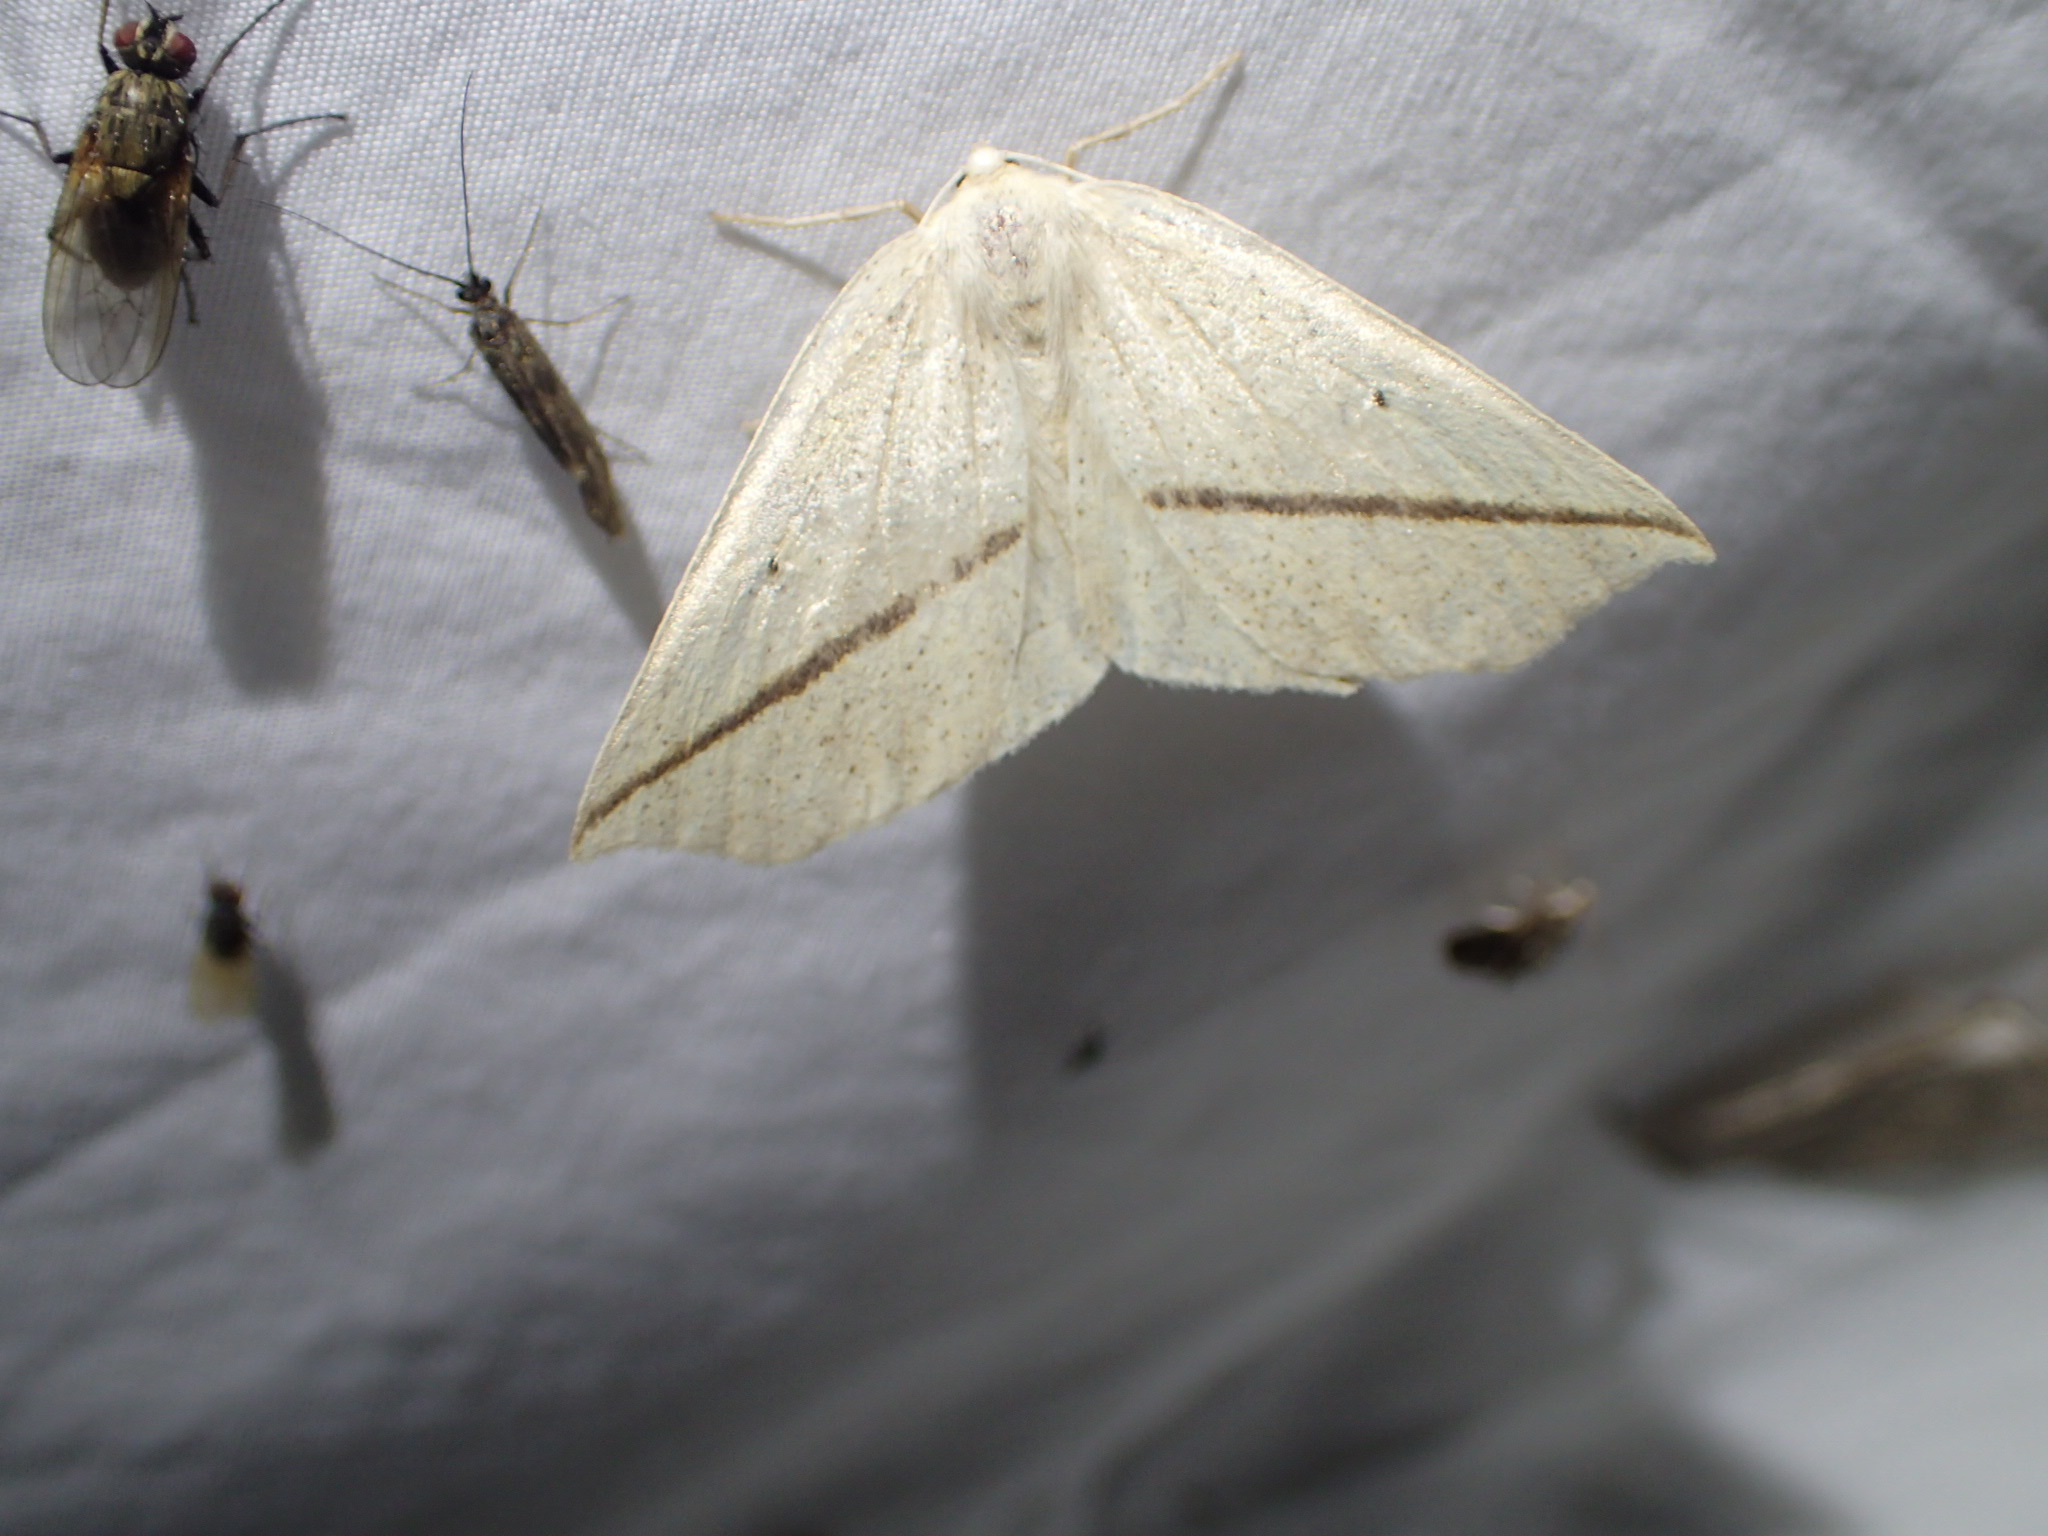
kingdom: Animalia
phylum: Arthropoda
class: Insecta
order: Lepidoptera
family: Geometridae
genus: Tetracis
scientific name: Tetracis crocallata
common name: Yellow slant-line
